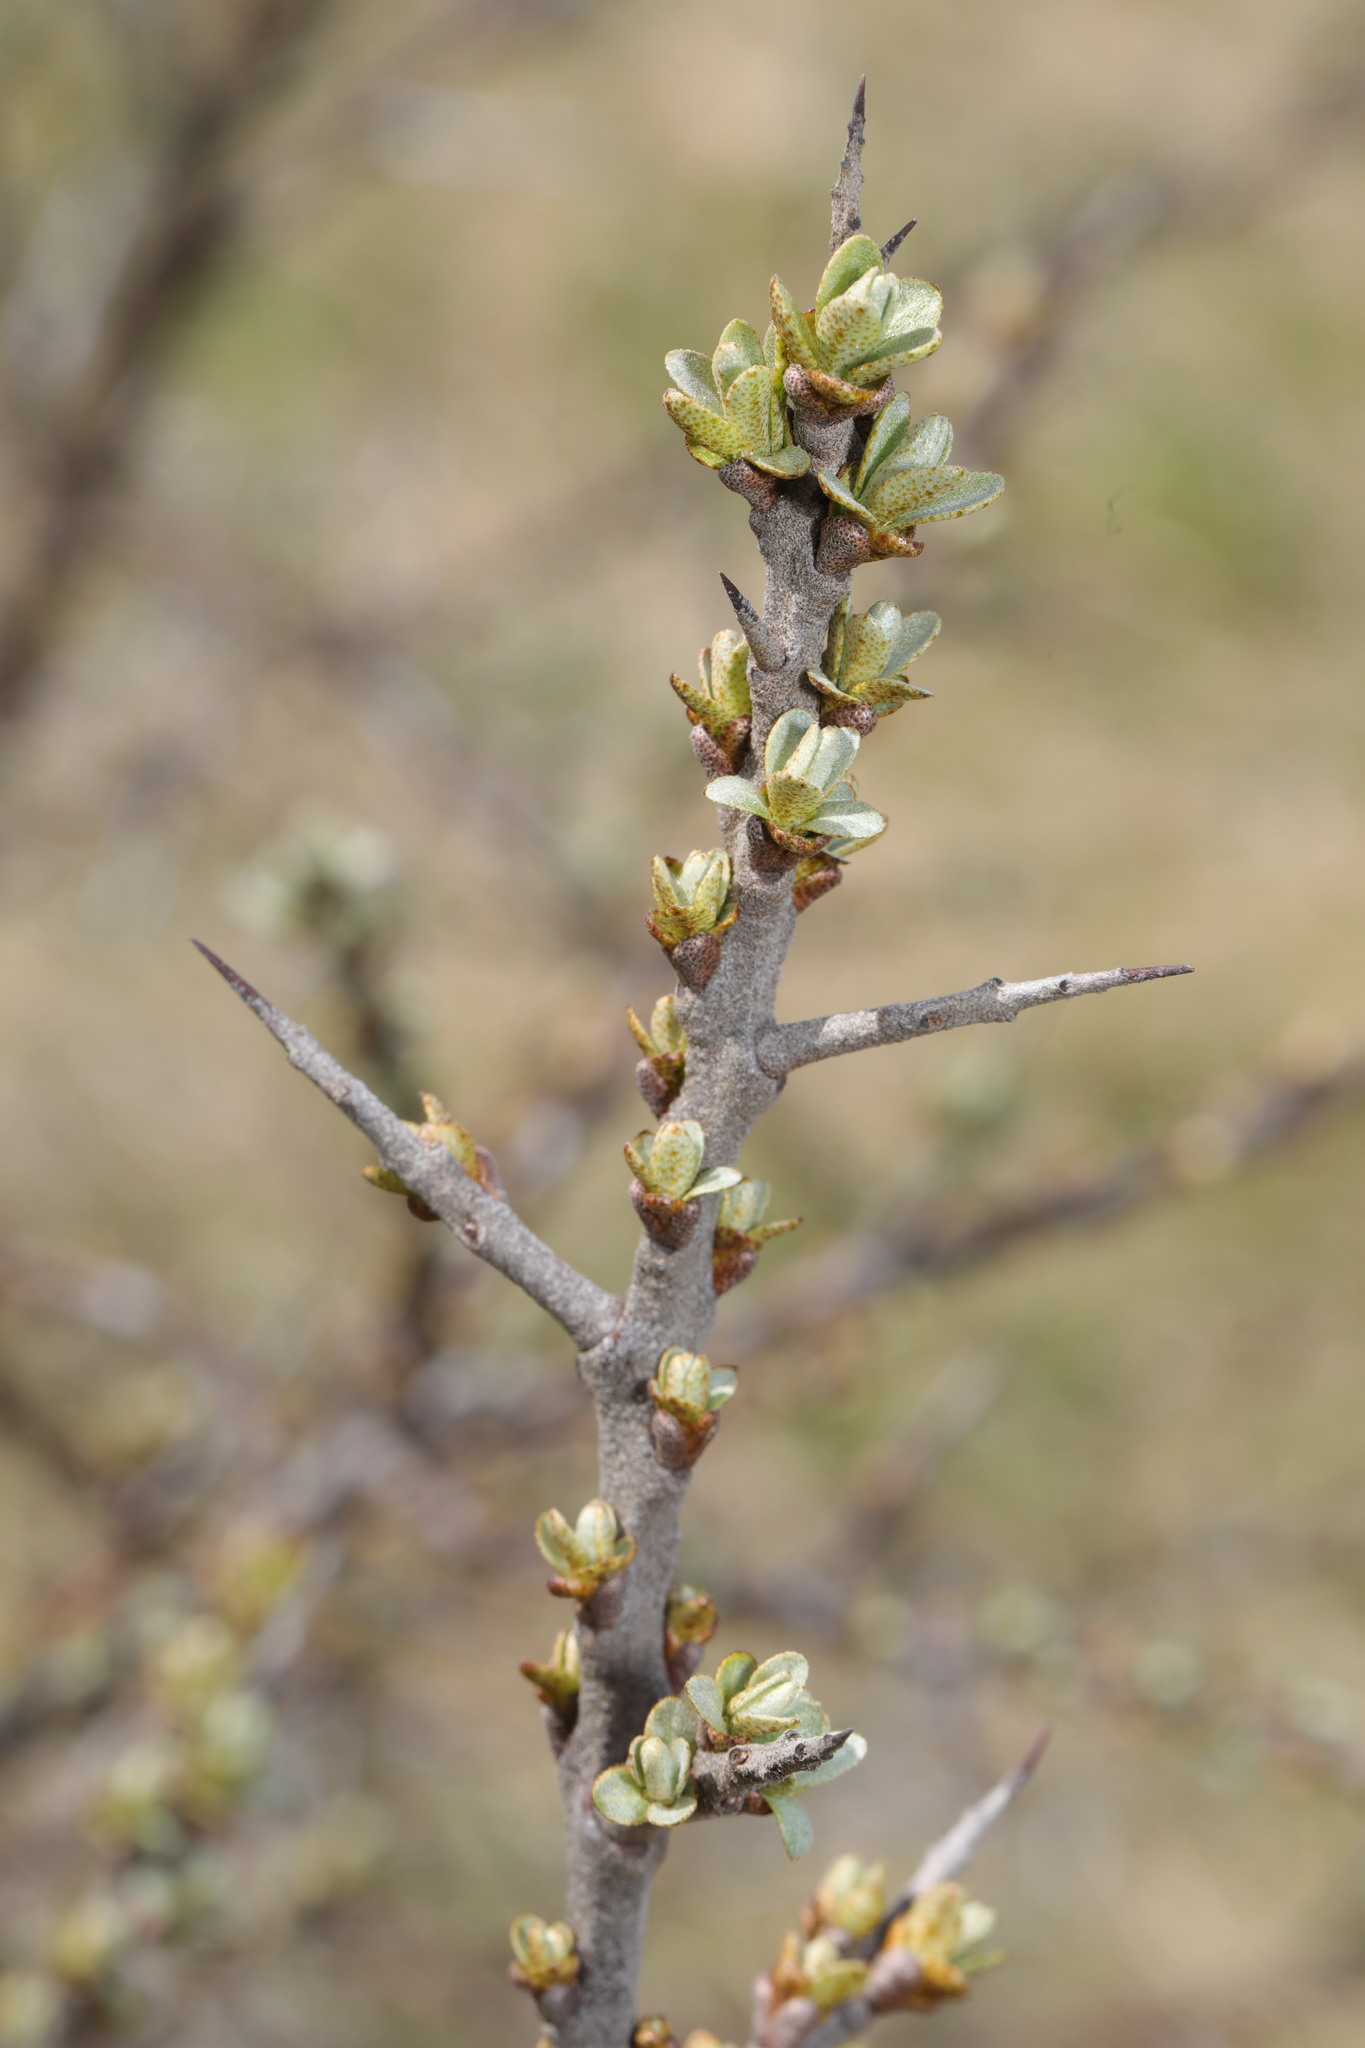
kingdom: Plantae
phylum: Tracheophyta
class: Magnoliopsida
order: Rosales
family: Elaeagnaceae
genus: Hippophae
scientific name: Hippophae rhamnoides
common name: Sea-buckthorn
